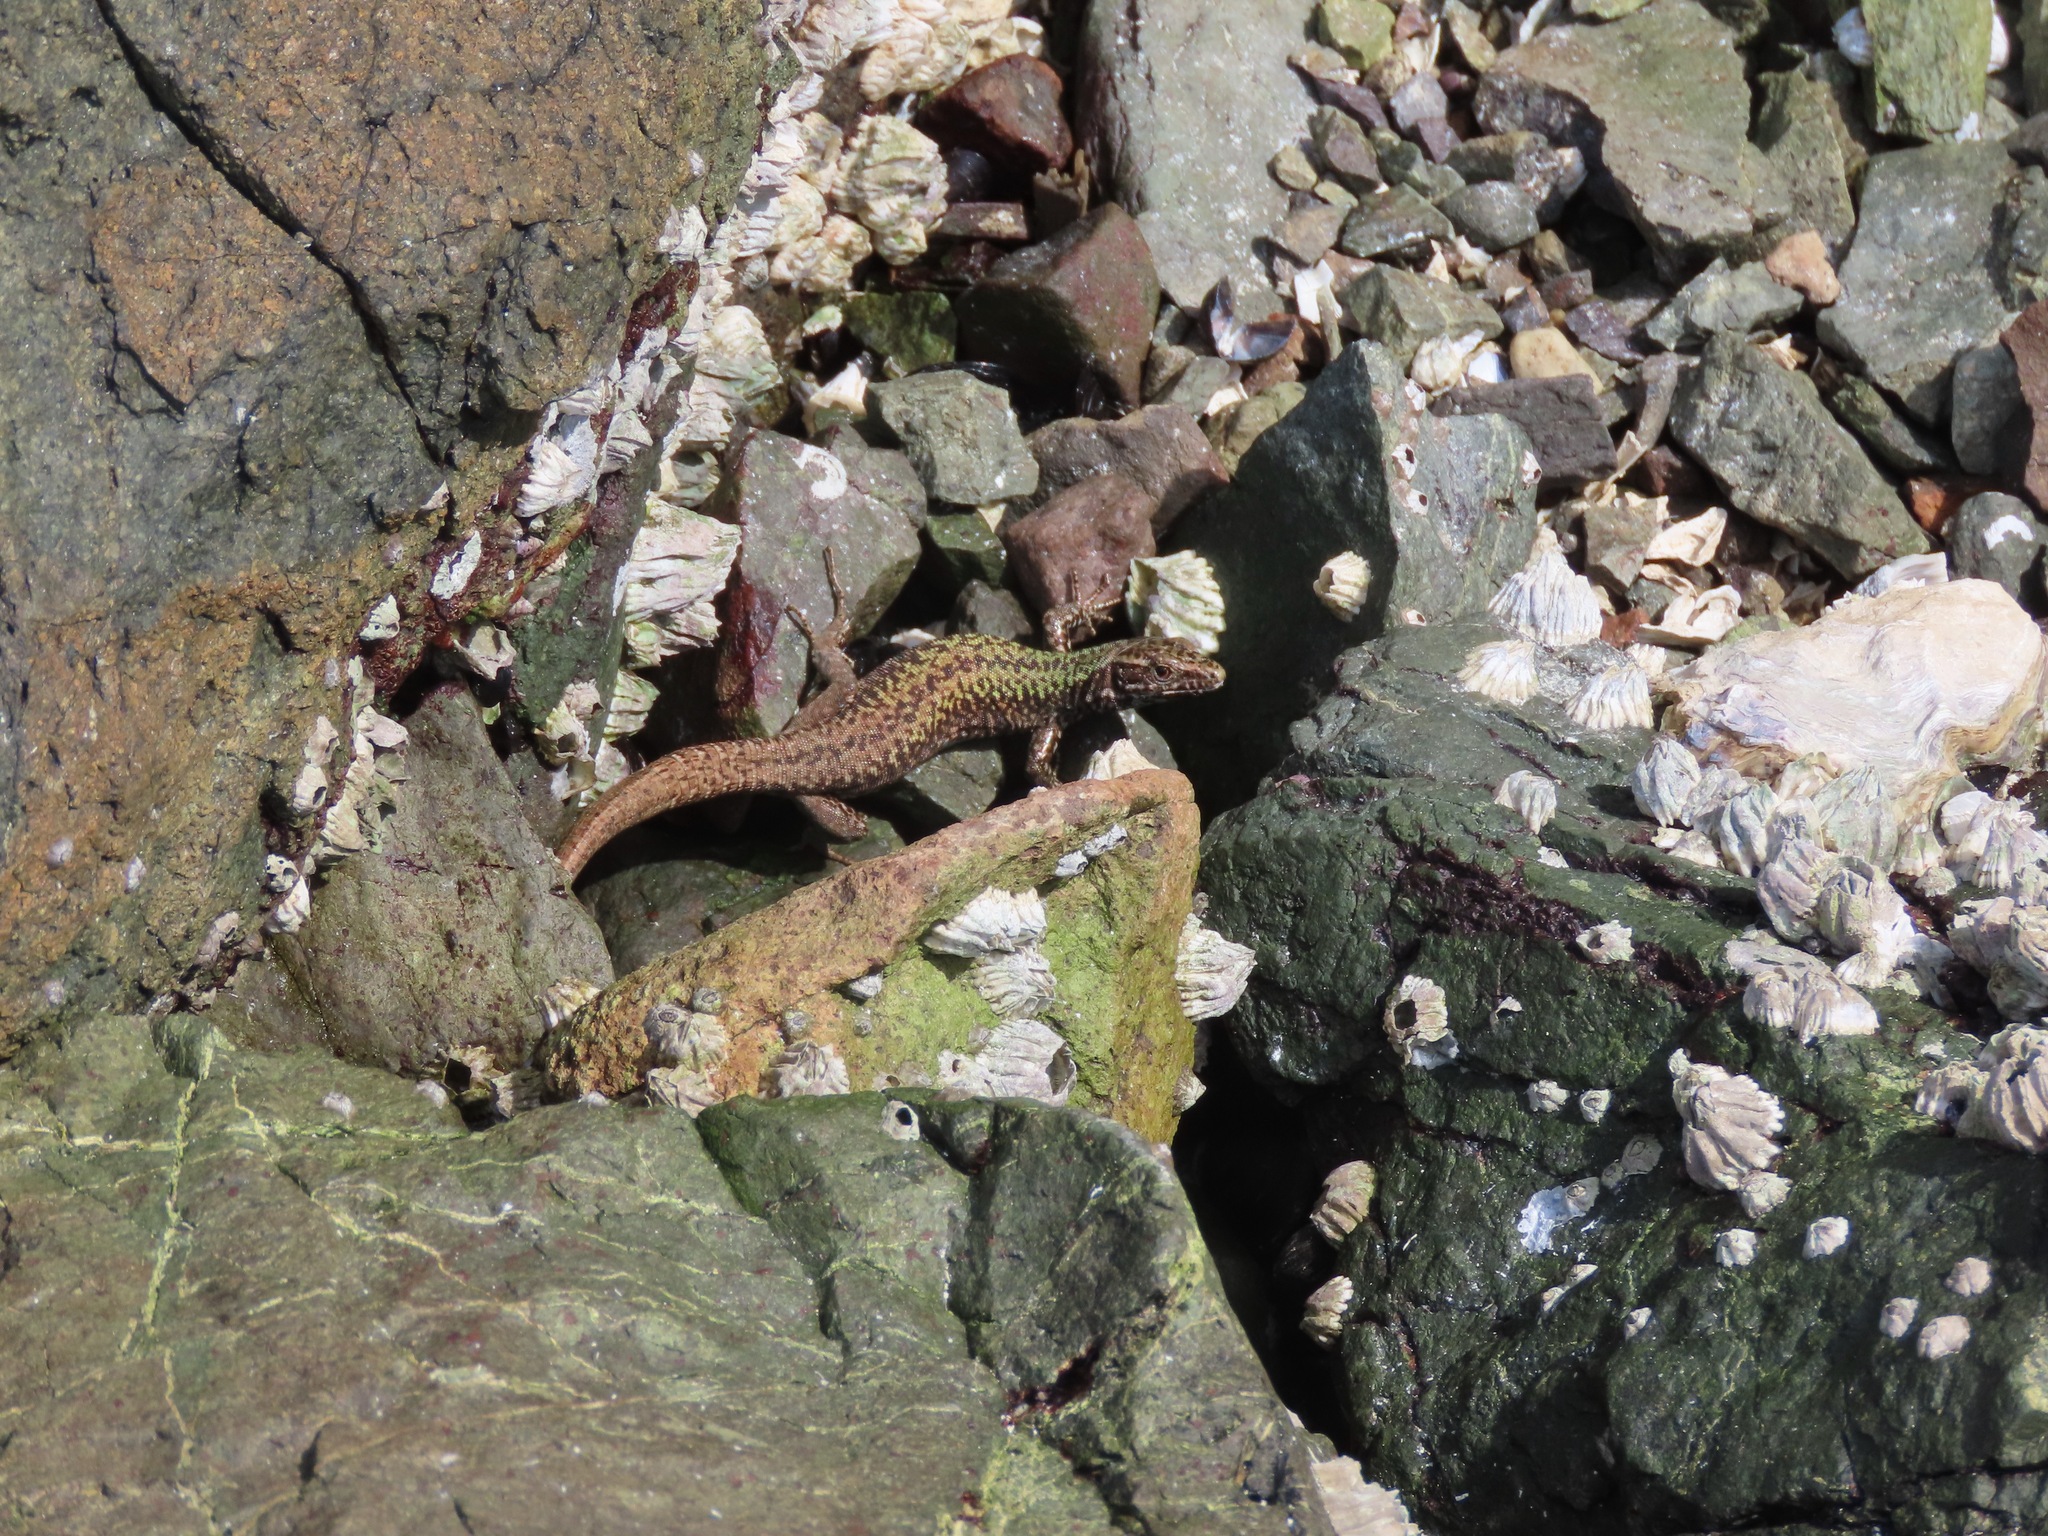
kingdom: Animalia
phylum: Chordata
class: Squamata
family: Lacertidae
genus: Podarcis
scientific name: Podarcis muralis
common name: Common wall lizard
